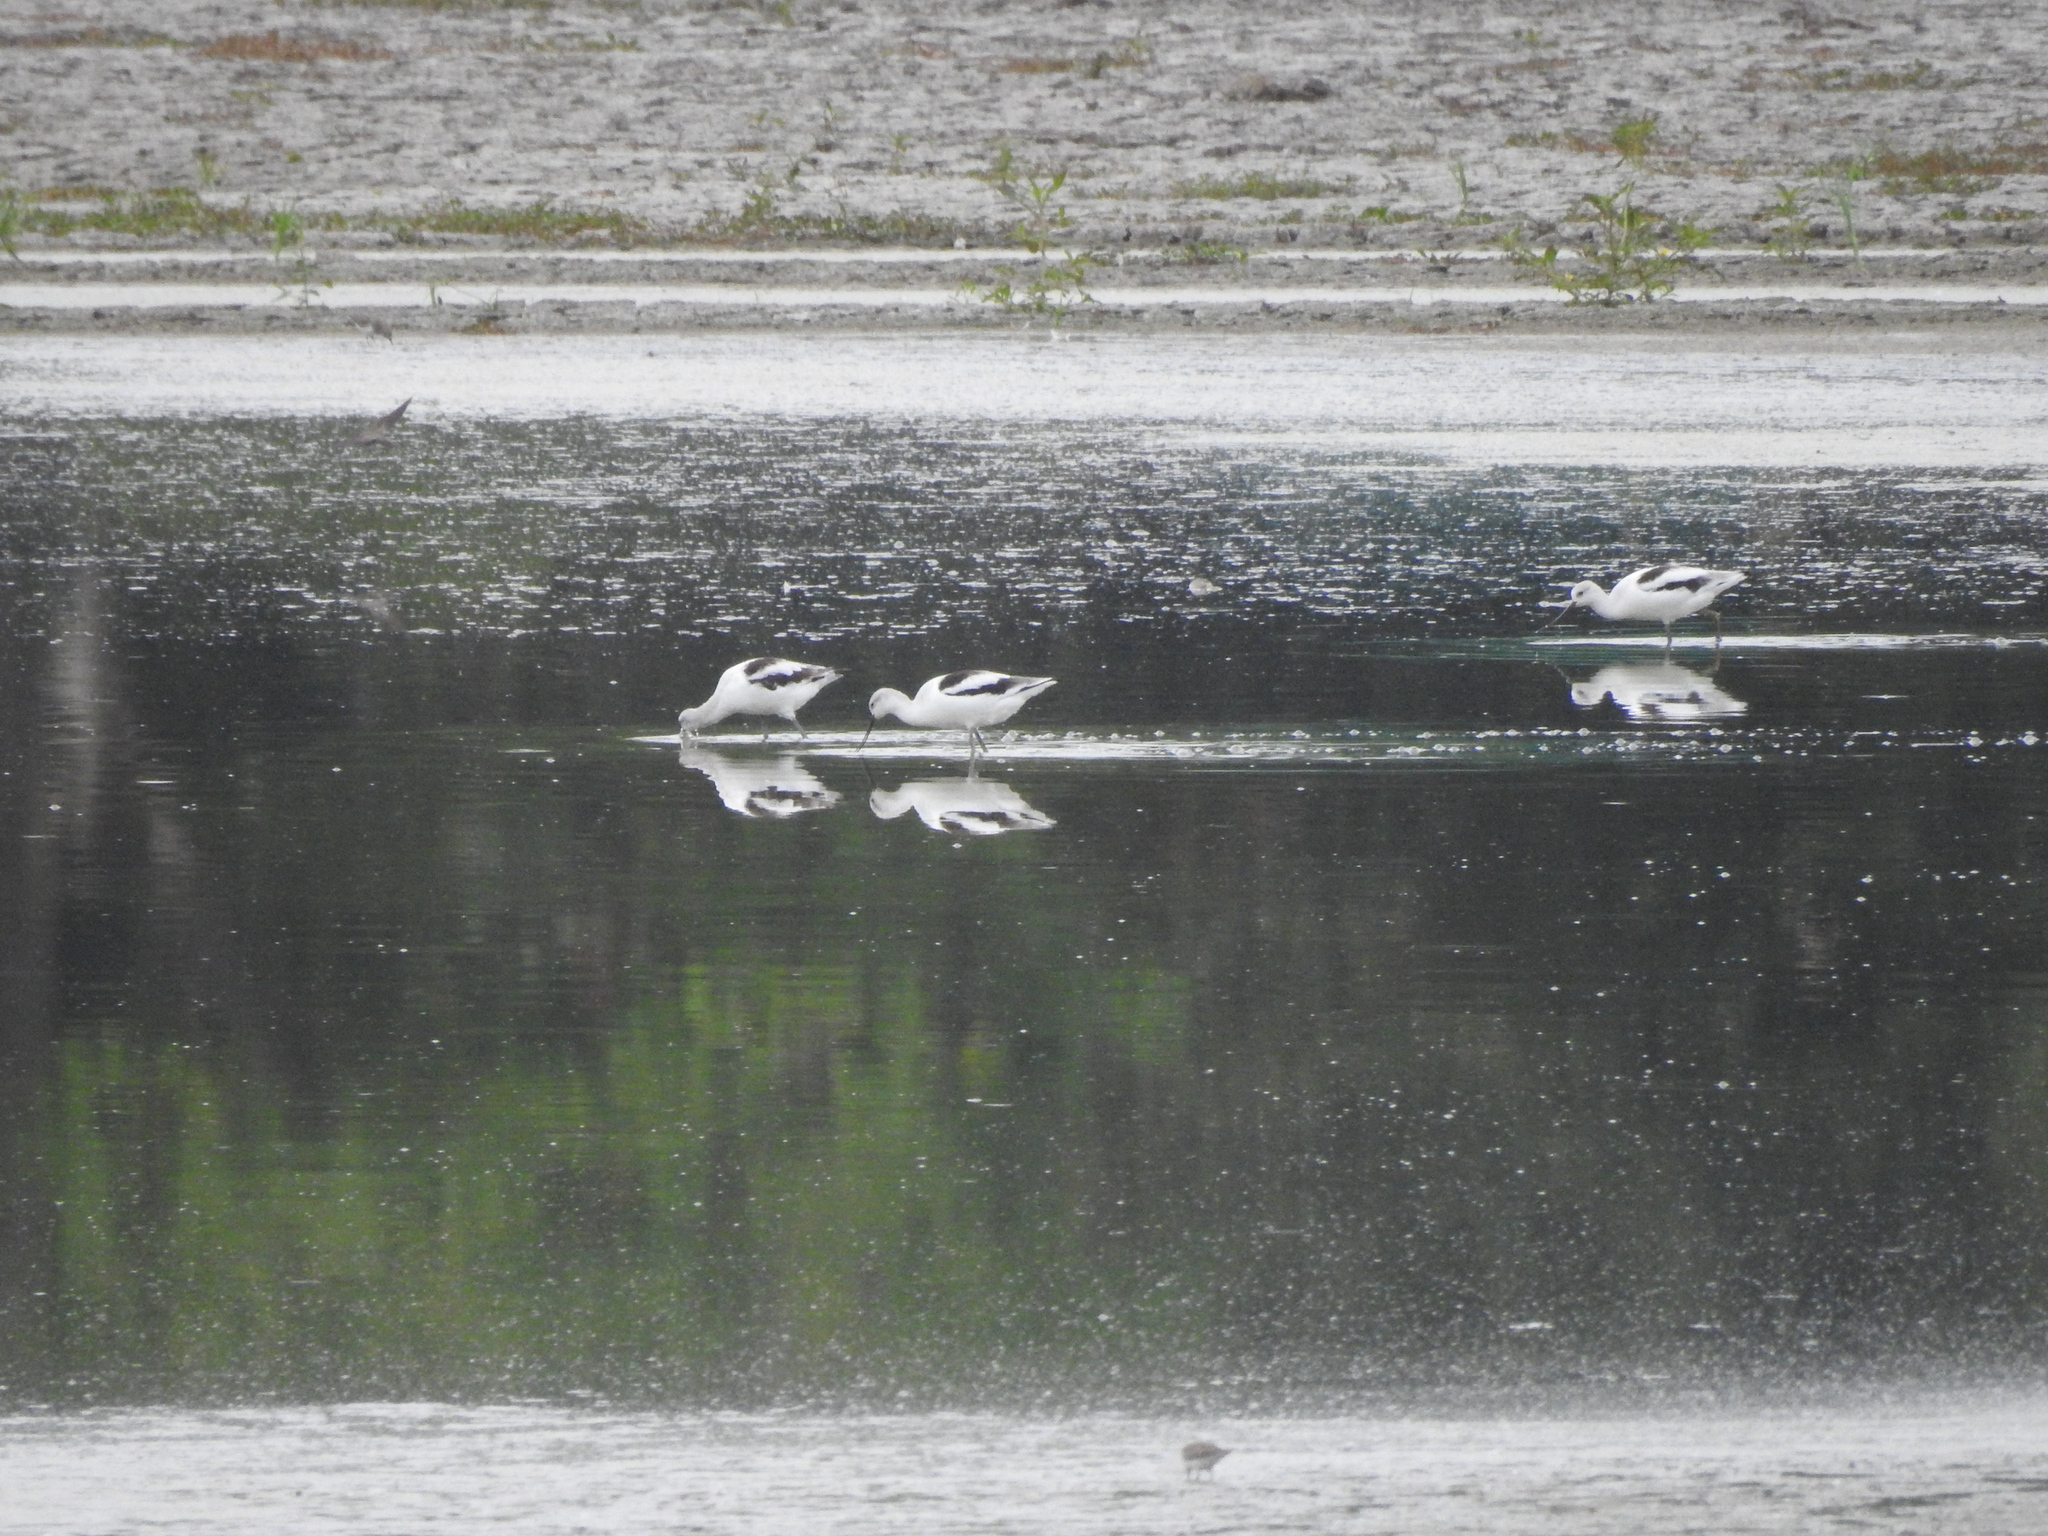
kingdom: Animalia
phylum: Chordata
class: Aves
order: Charadriiformes
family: Recurvirostridae
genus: Recurvirostra
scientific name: Recurvirostra americana
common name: American avocet
